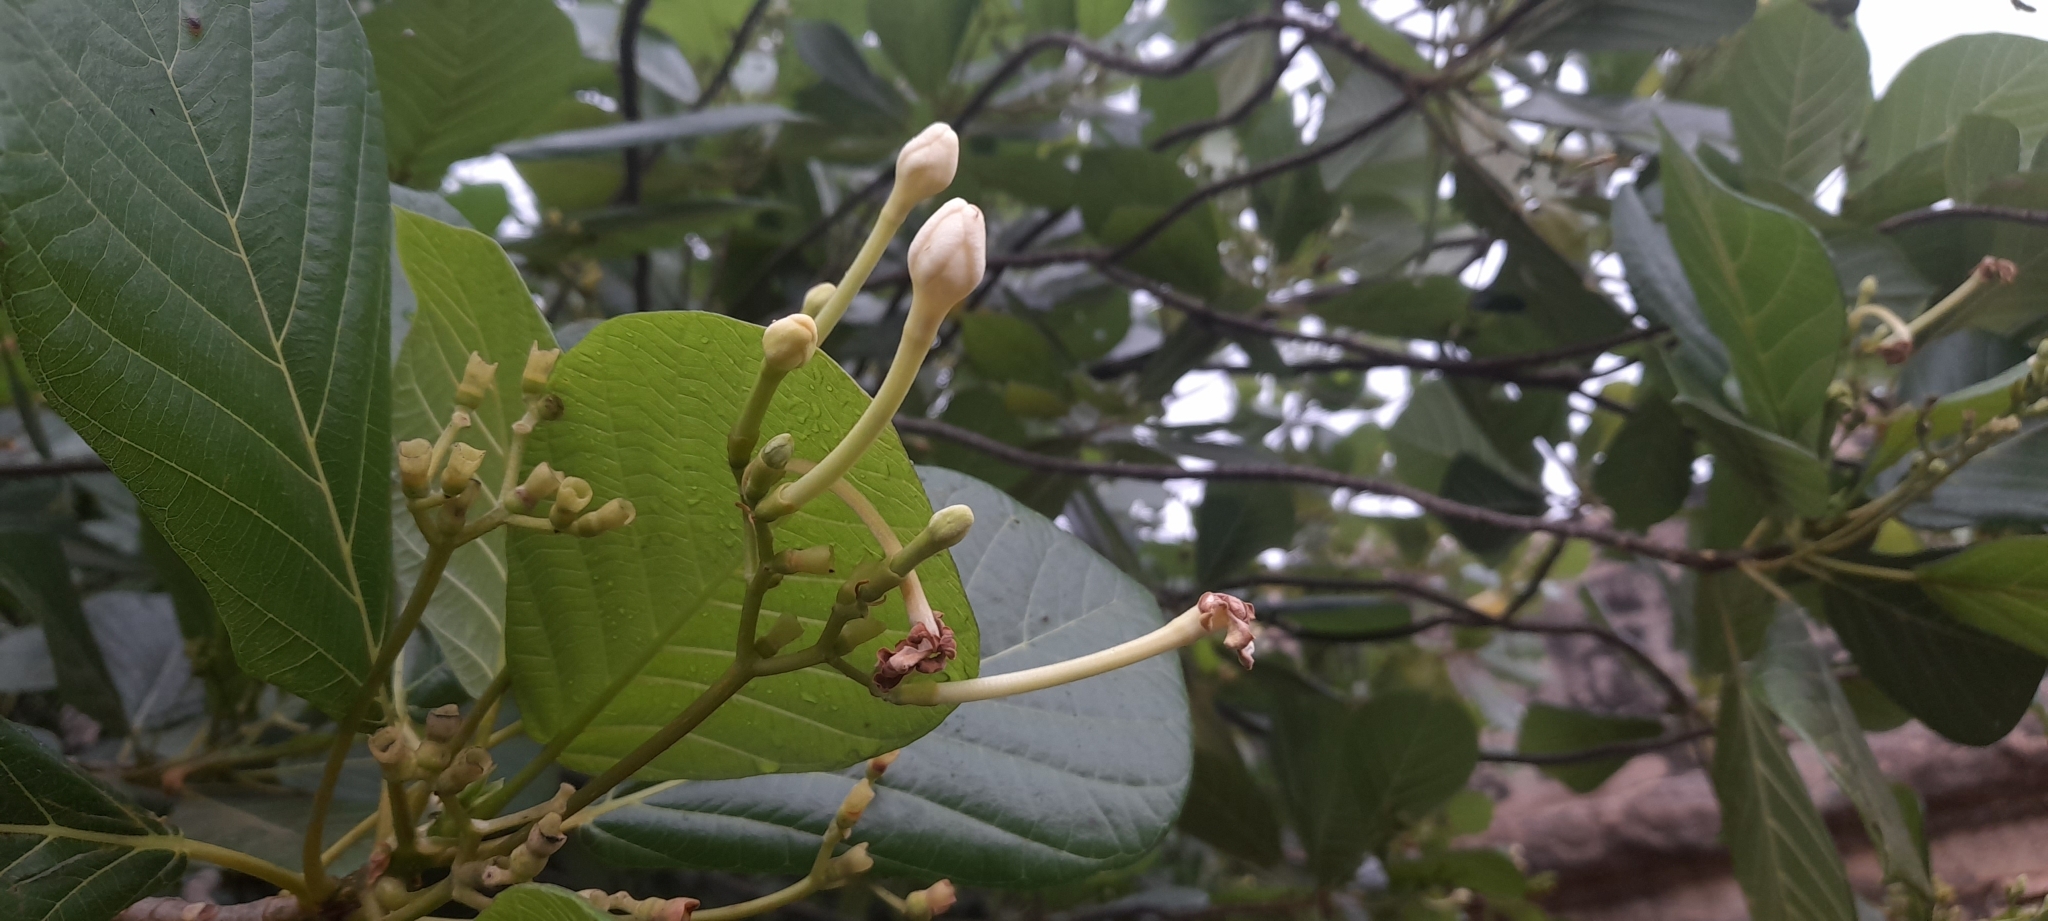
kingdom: Plantae
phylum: Tracheophyta
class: Magnoliopsida
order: Gentianales
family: Rubiaceae
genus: Guettarda
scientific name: Guettarda speciosa
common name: Sea randa
